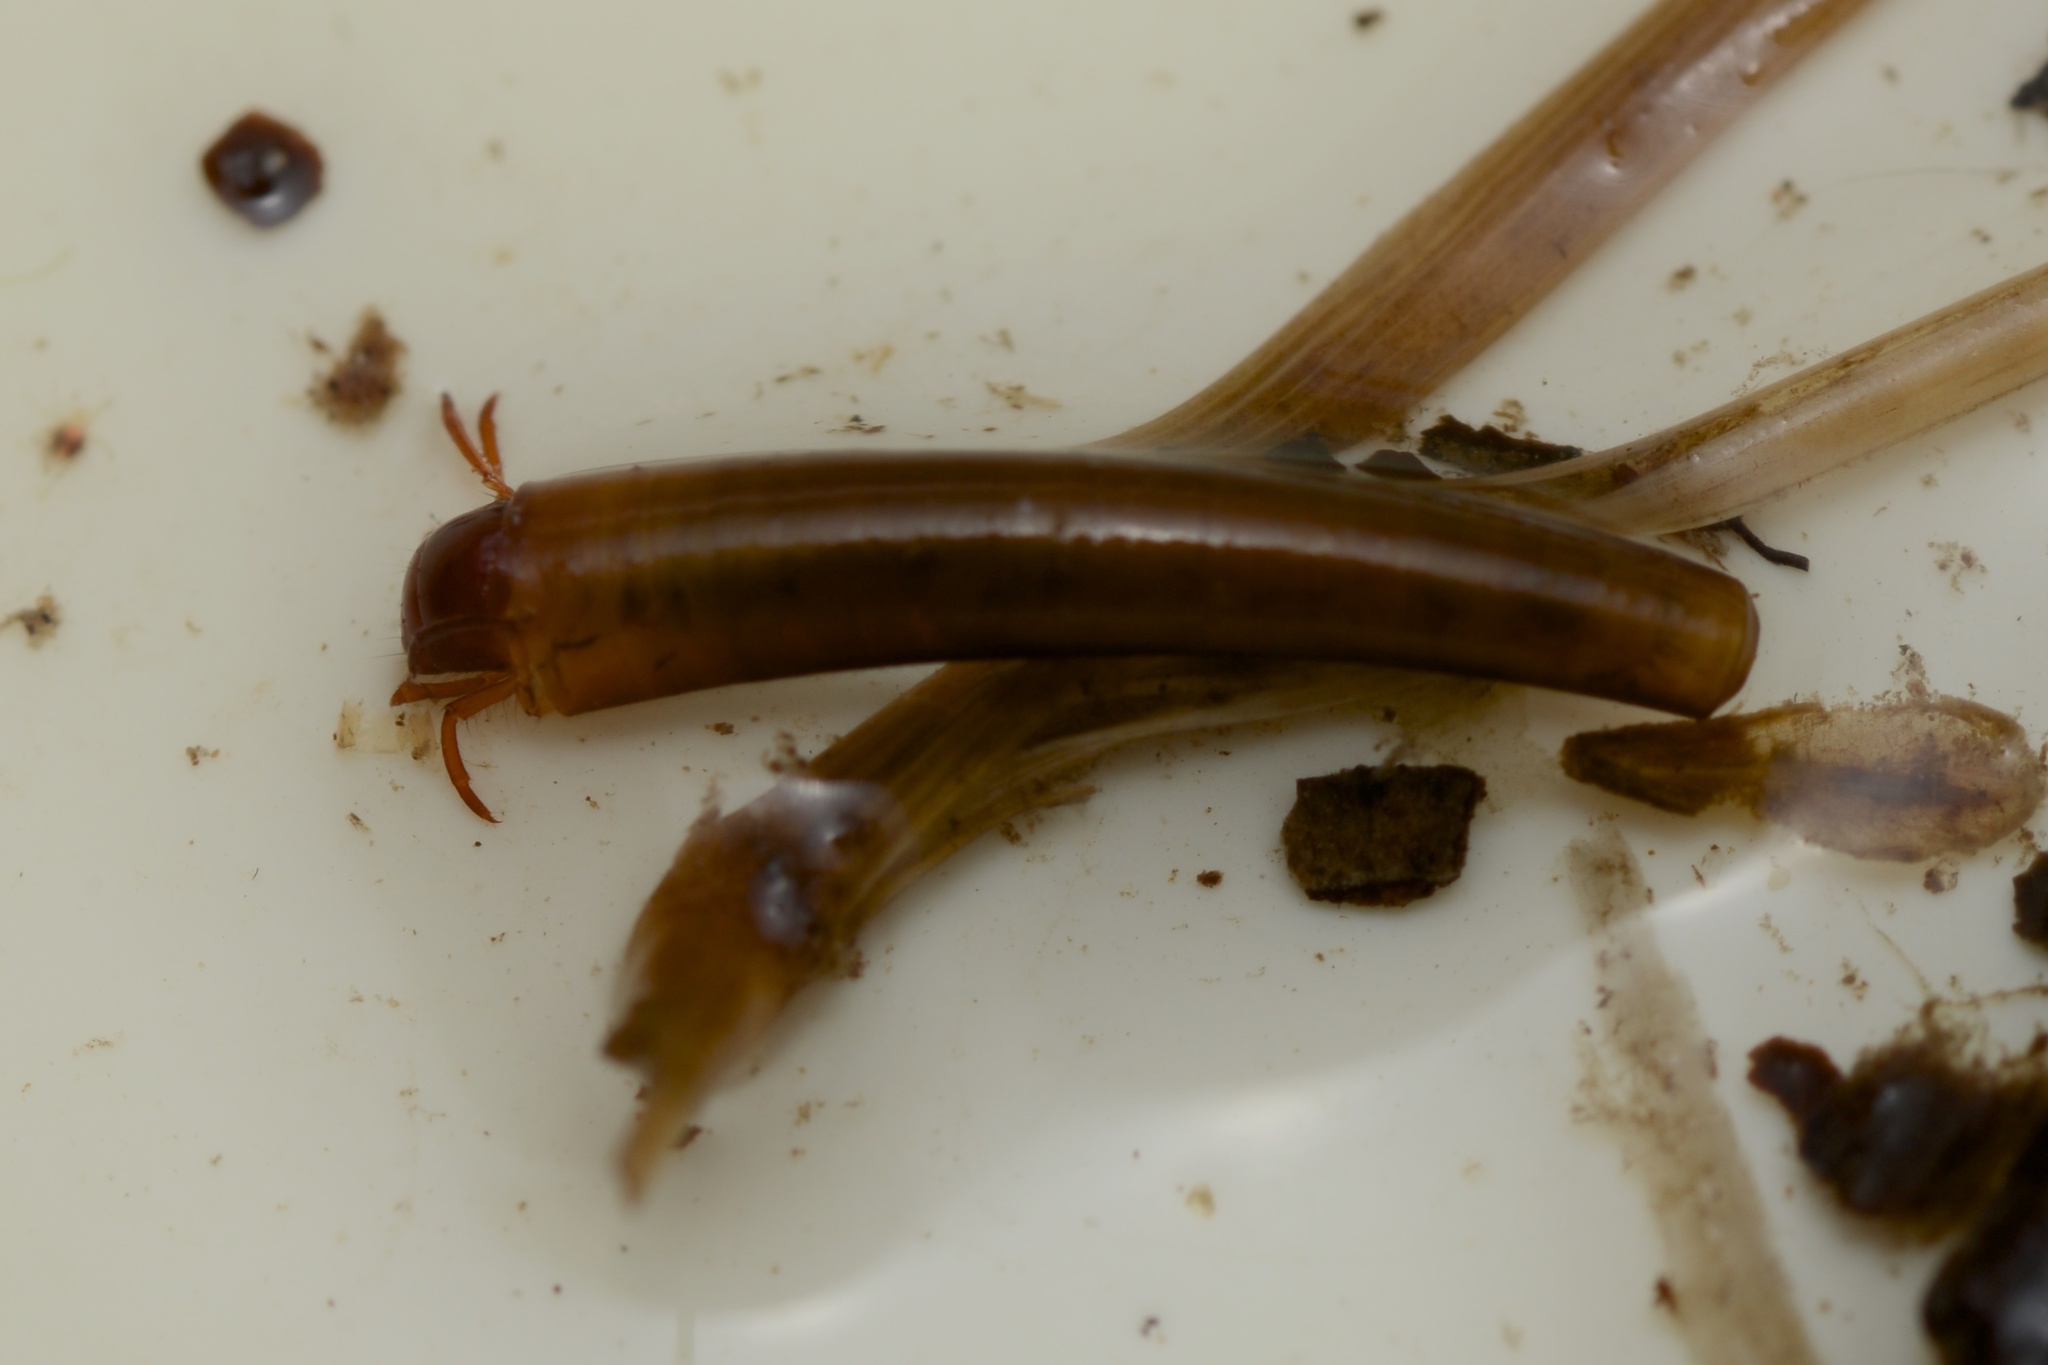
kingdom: Animalia
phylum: Arthropoda
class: Insecta
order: Trichoptera
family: Conoesucidae
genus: Olinga
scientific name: Olinga feredayi
